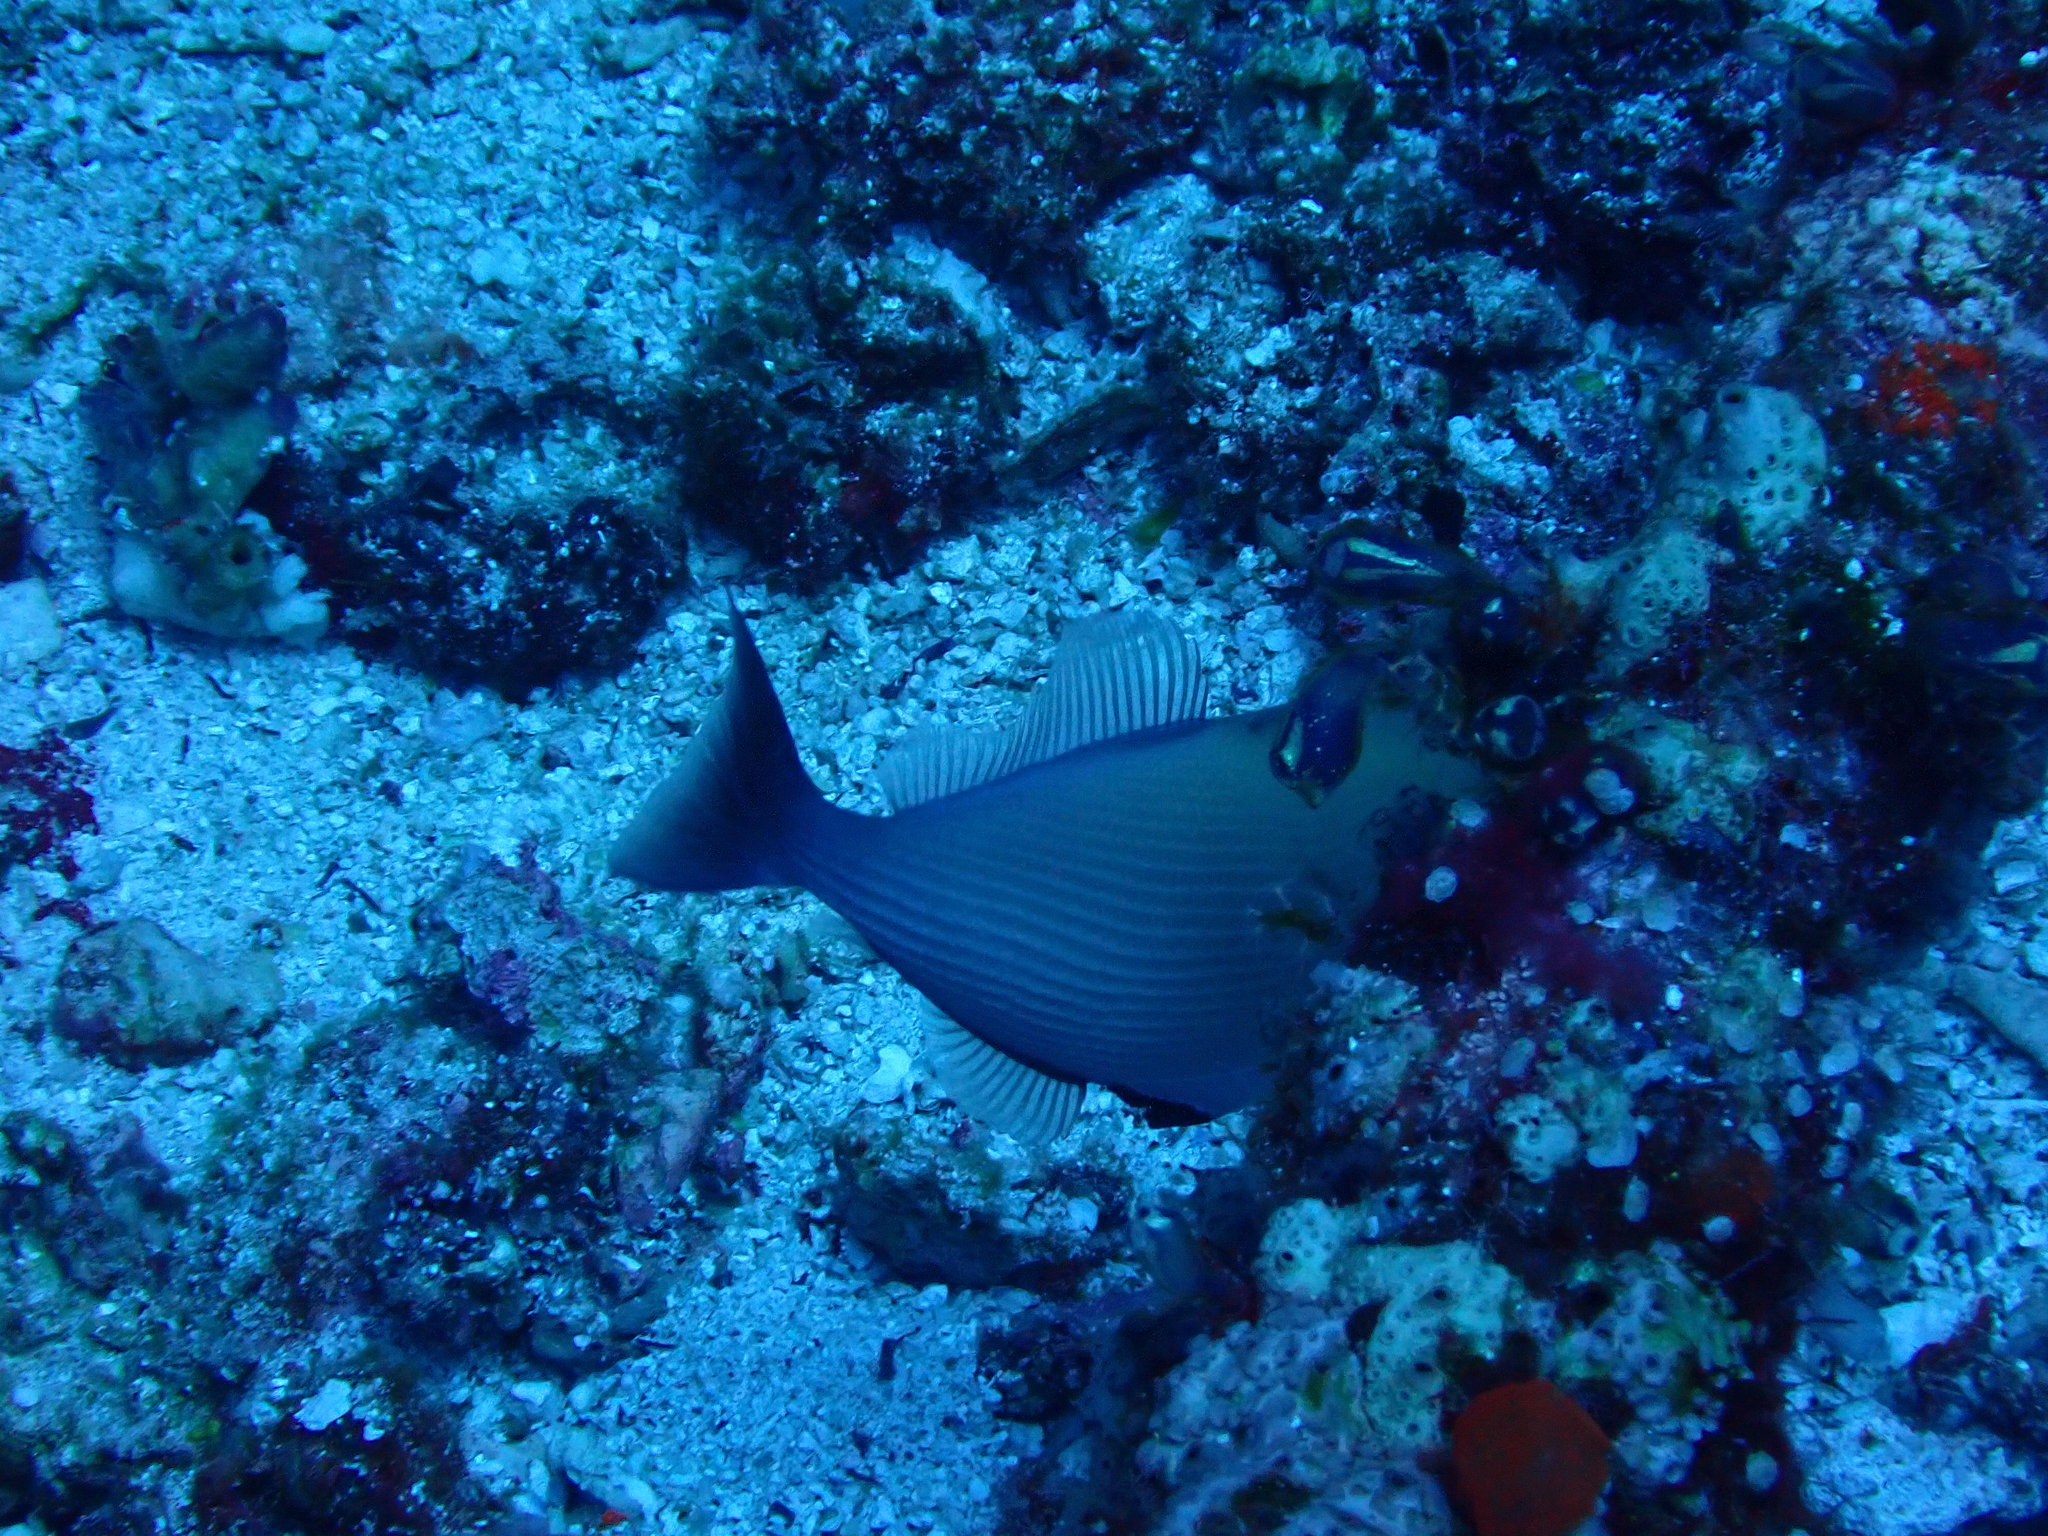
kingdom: Animalia
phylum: Chordata
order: Tetraodontiformes
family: Balistidae
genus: Sufflamen
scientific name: Sufflamen bursa
